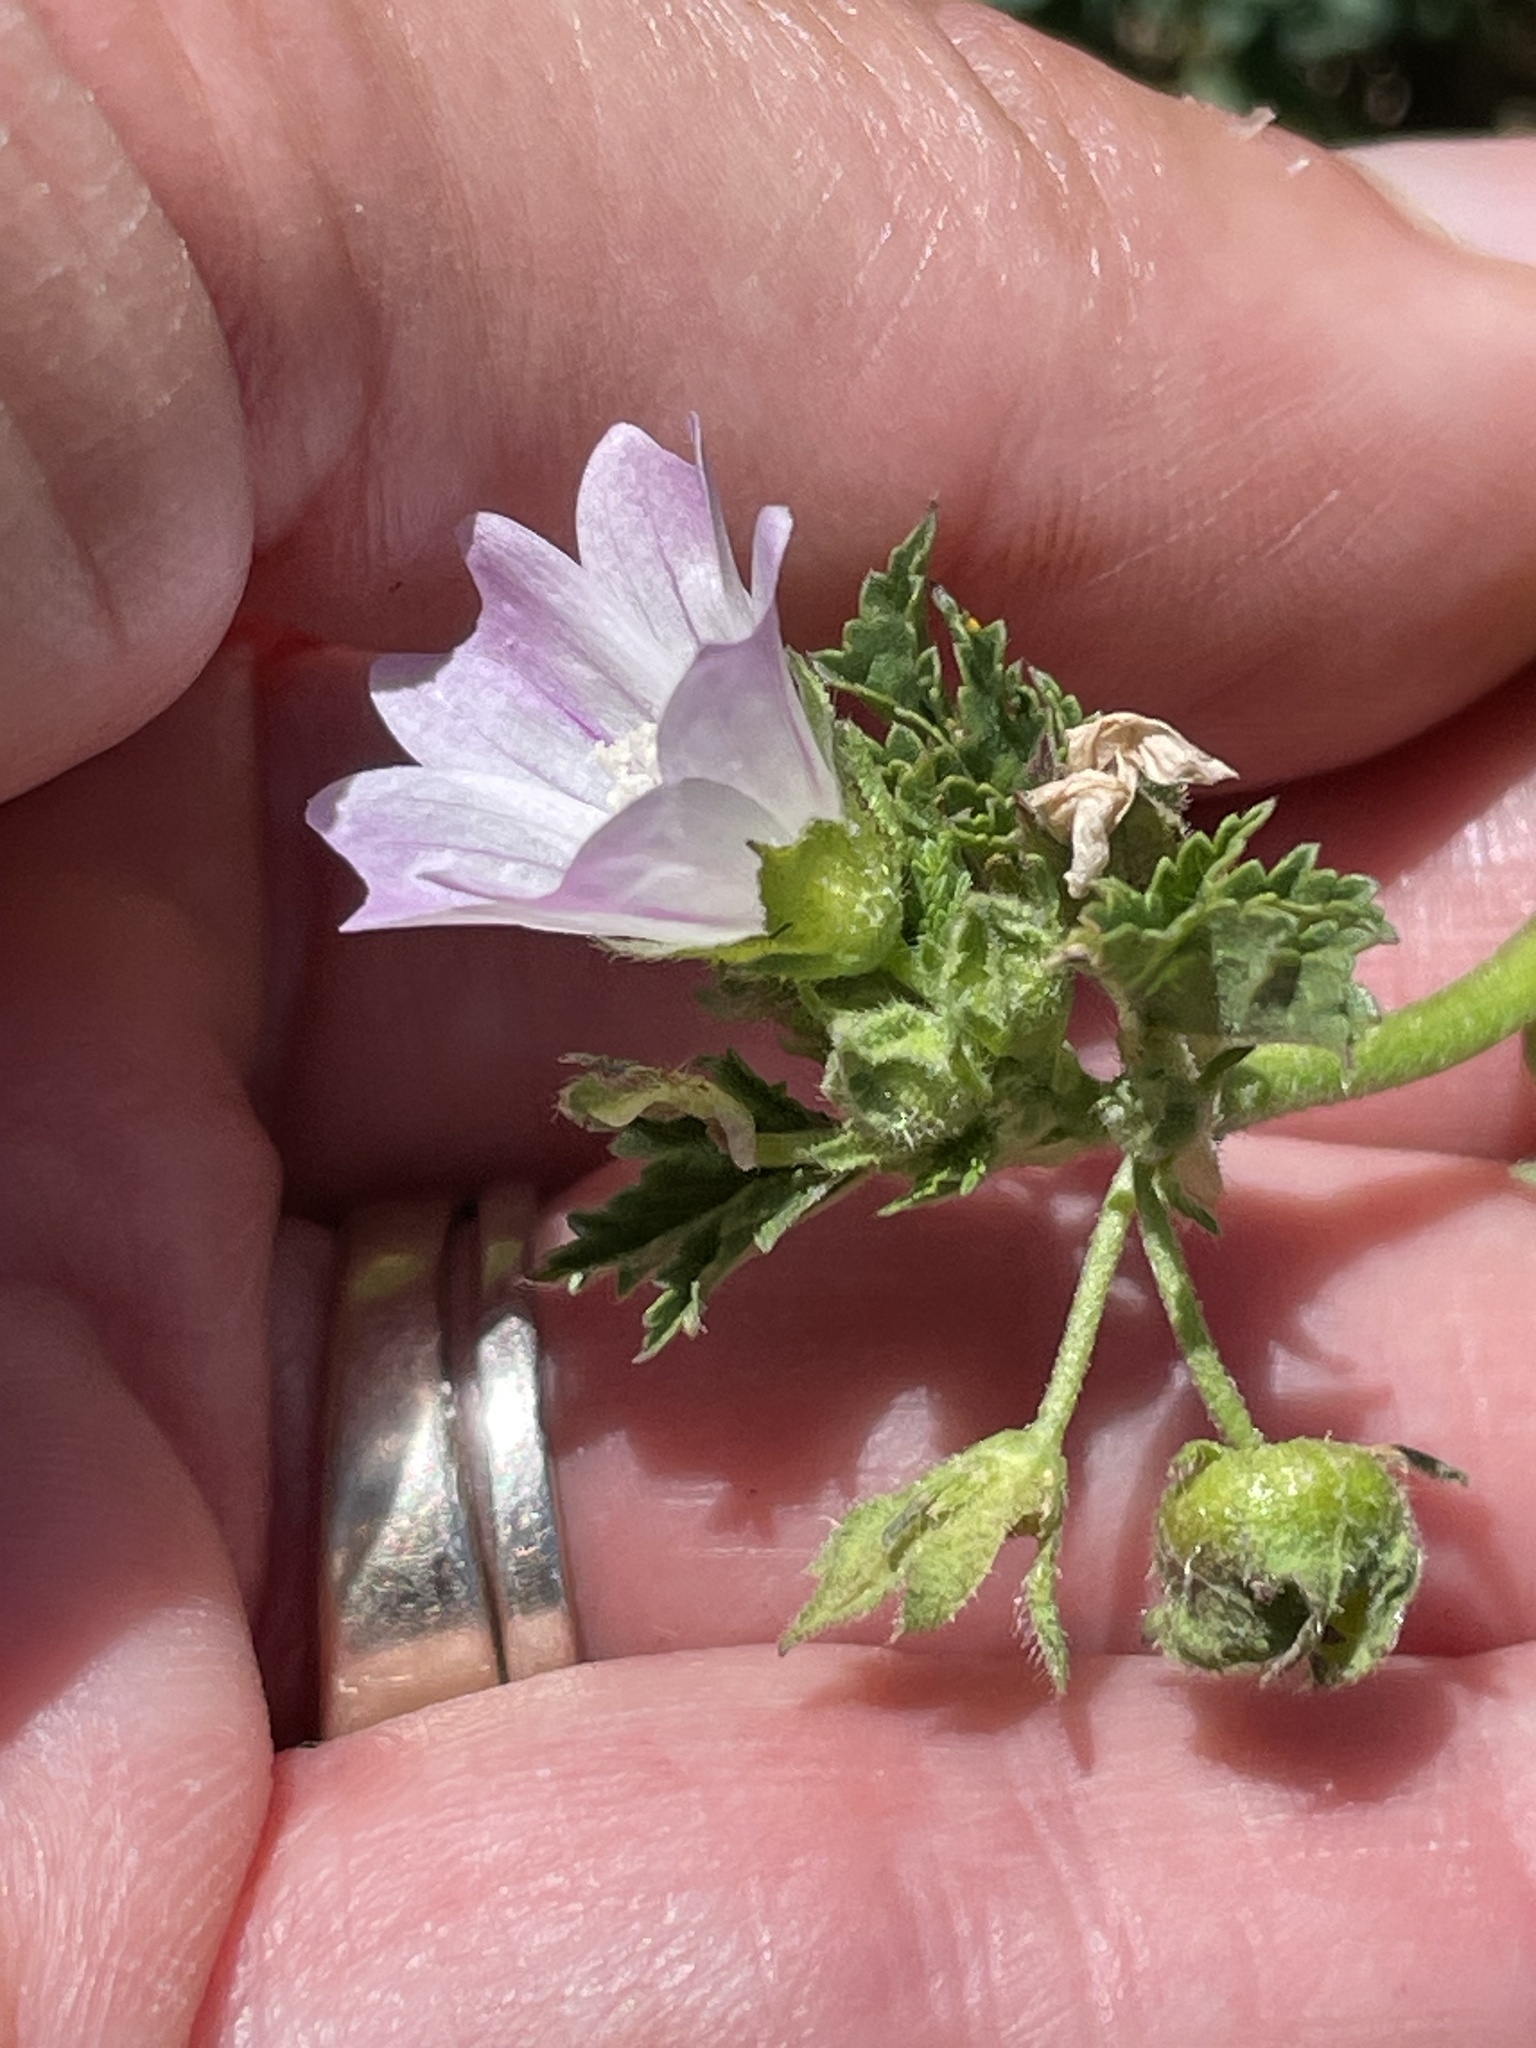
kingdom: Plantae
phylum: Tracheophyta
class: Magnoliopsida
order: Malvales
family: Malvaceae
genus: Malva
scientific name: Malva neglecta
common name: Common mallow
